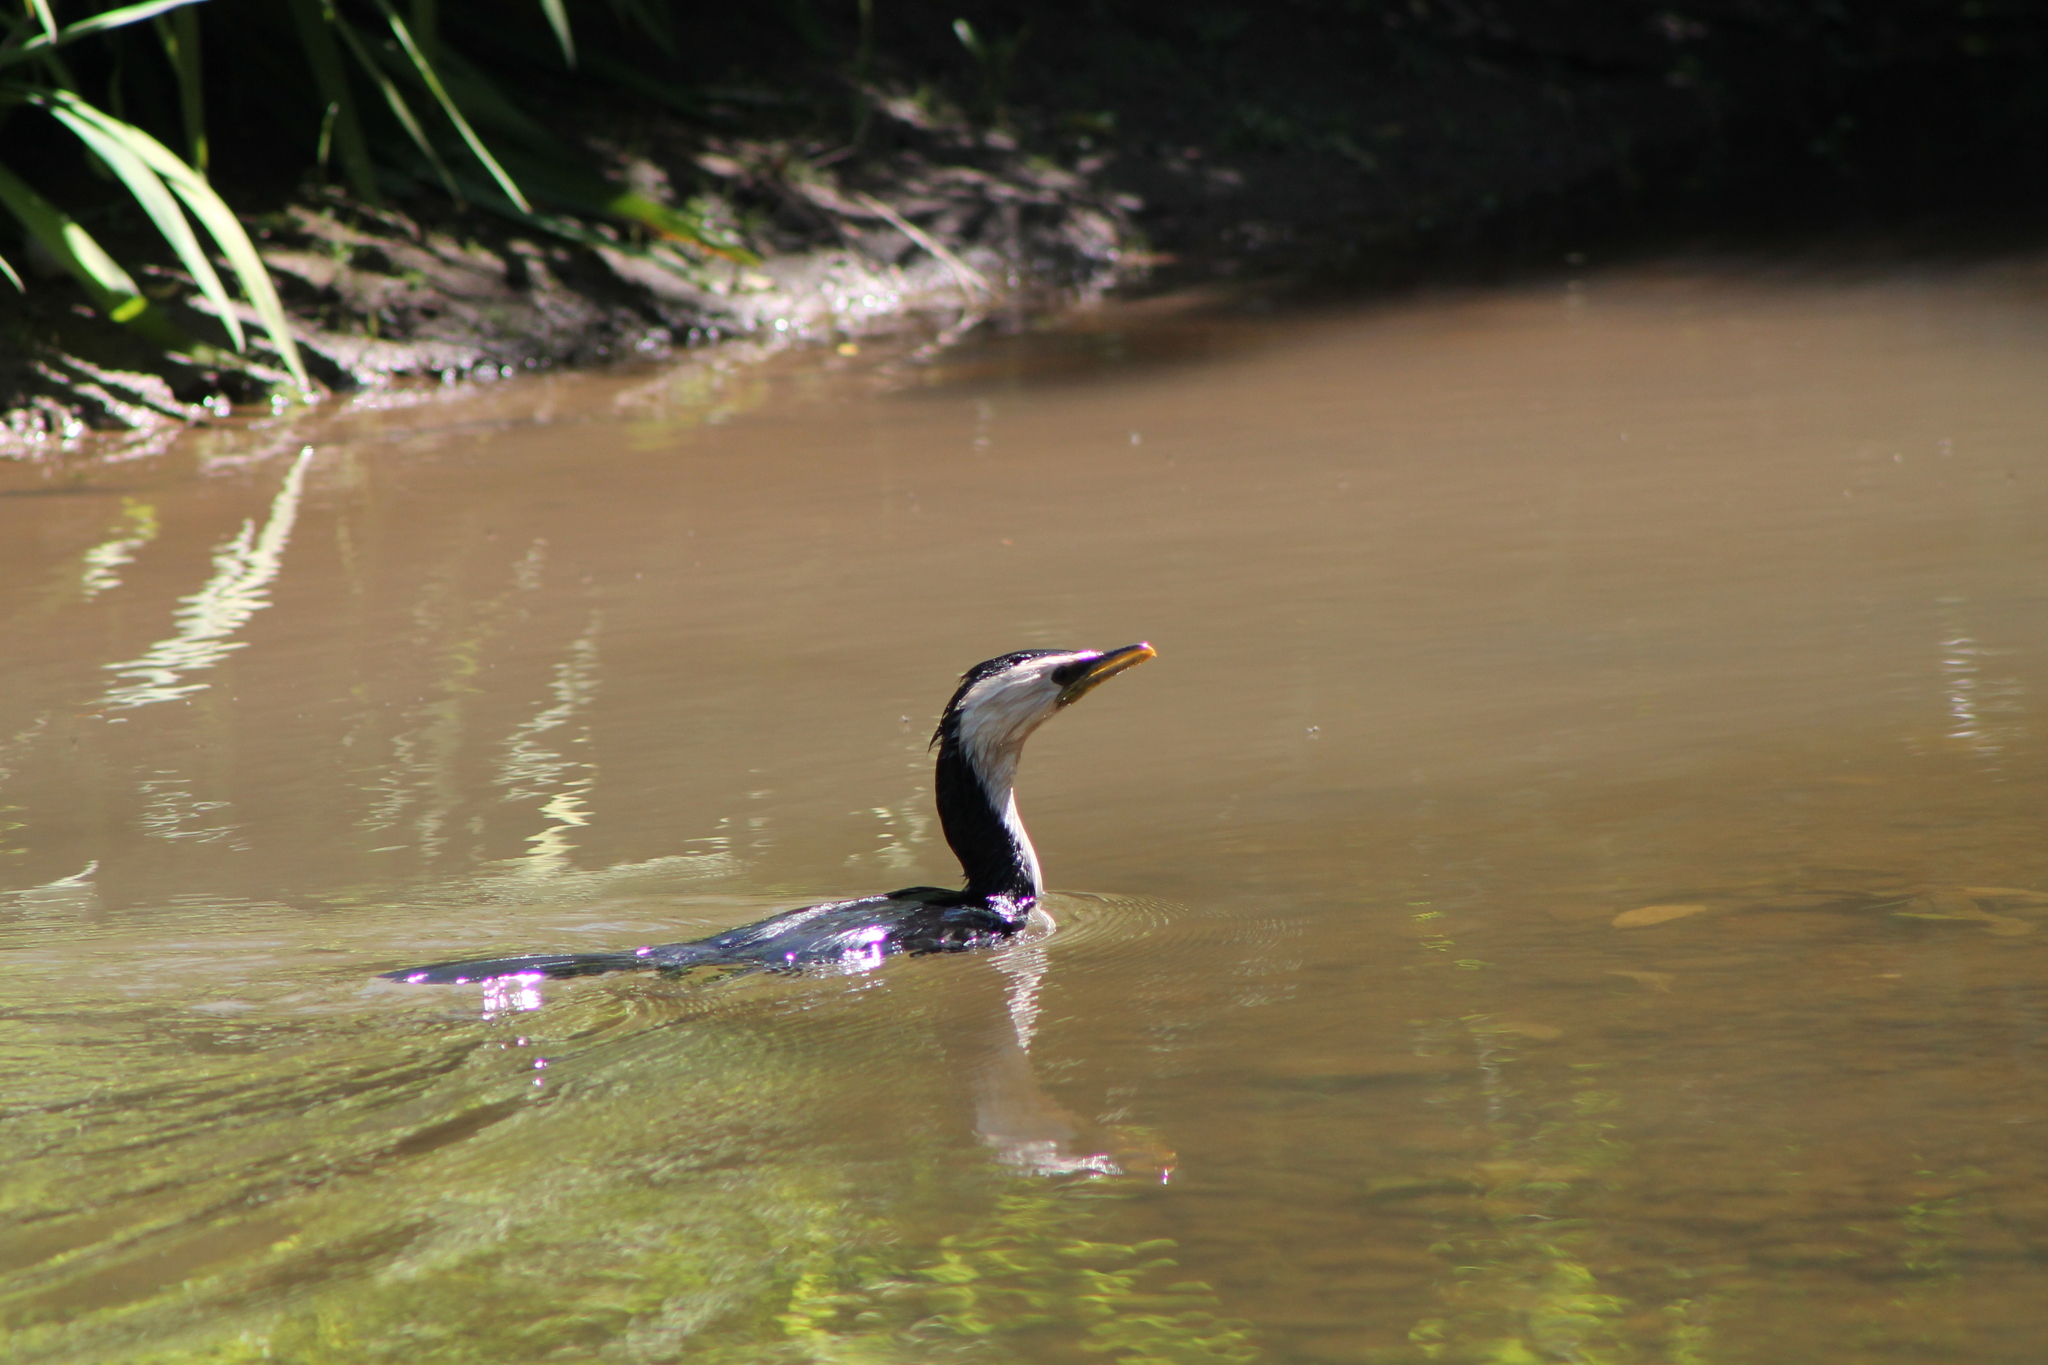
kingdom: Animalia
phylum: Chordata
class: Aves
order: Suliformes
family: Phalacrocoracidae
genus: Microcarbo
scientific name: Microcarbo melanoleucos
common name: Little pied cormorant
